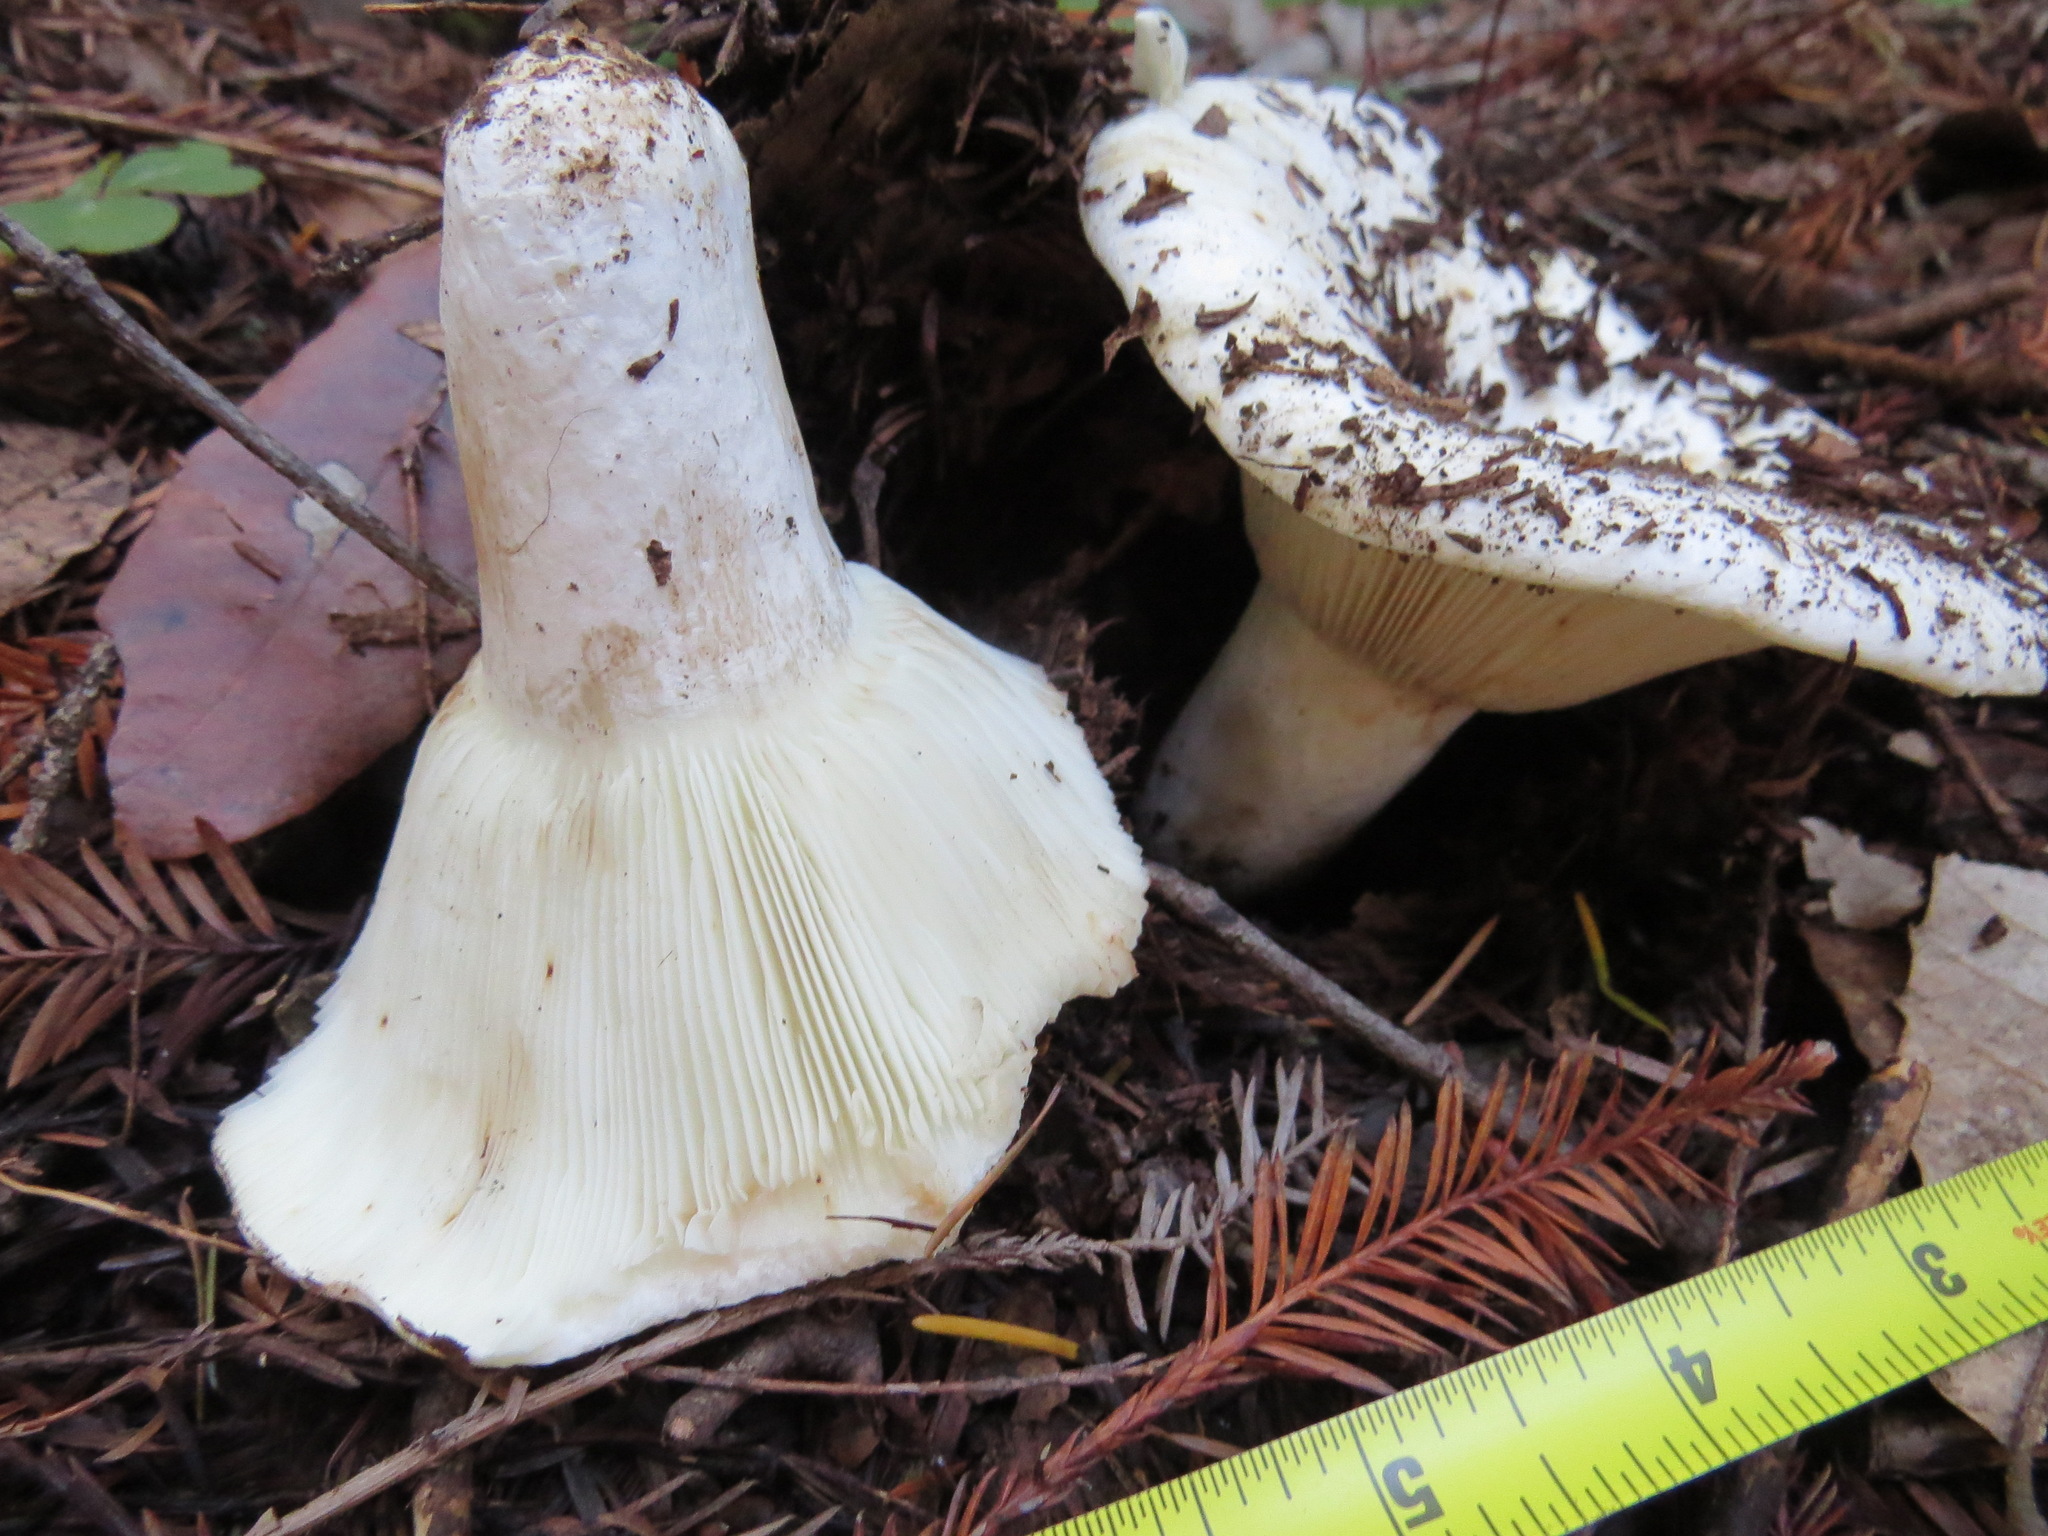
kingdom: Fungi
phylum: Basidiomycota
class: Agaricomycetes
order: Russulales
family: Russulaceae
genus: Russula
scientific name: Russula brevipes
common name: Short-stemmed russula
